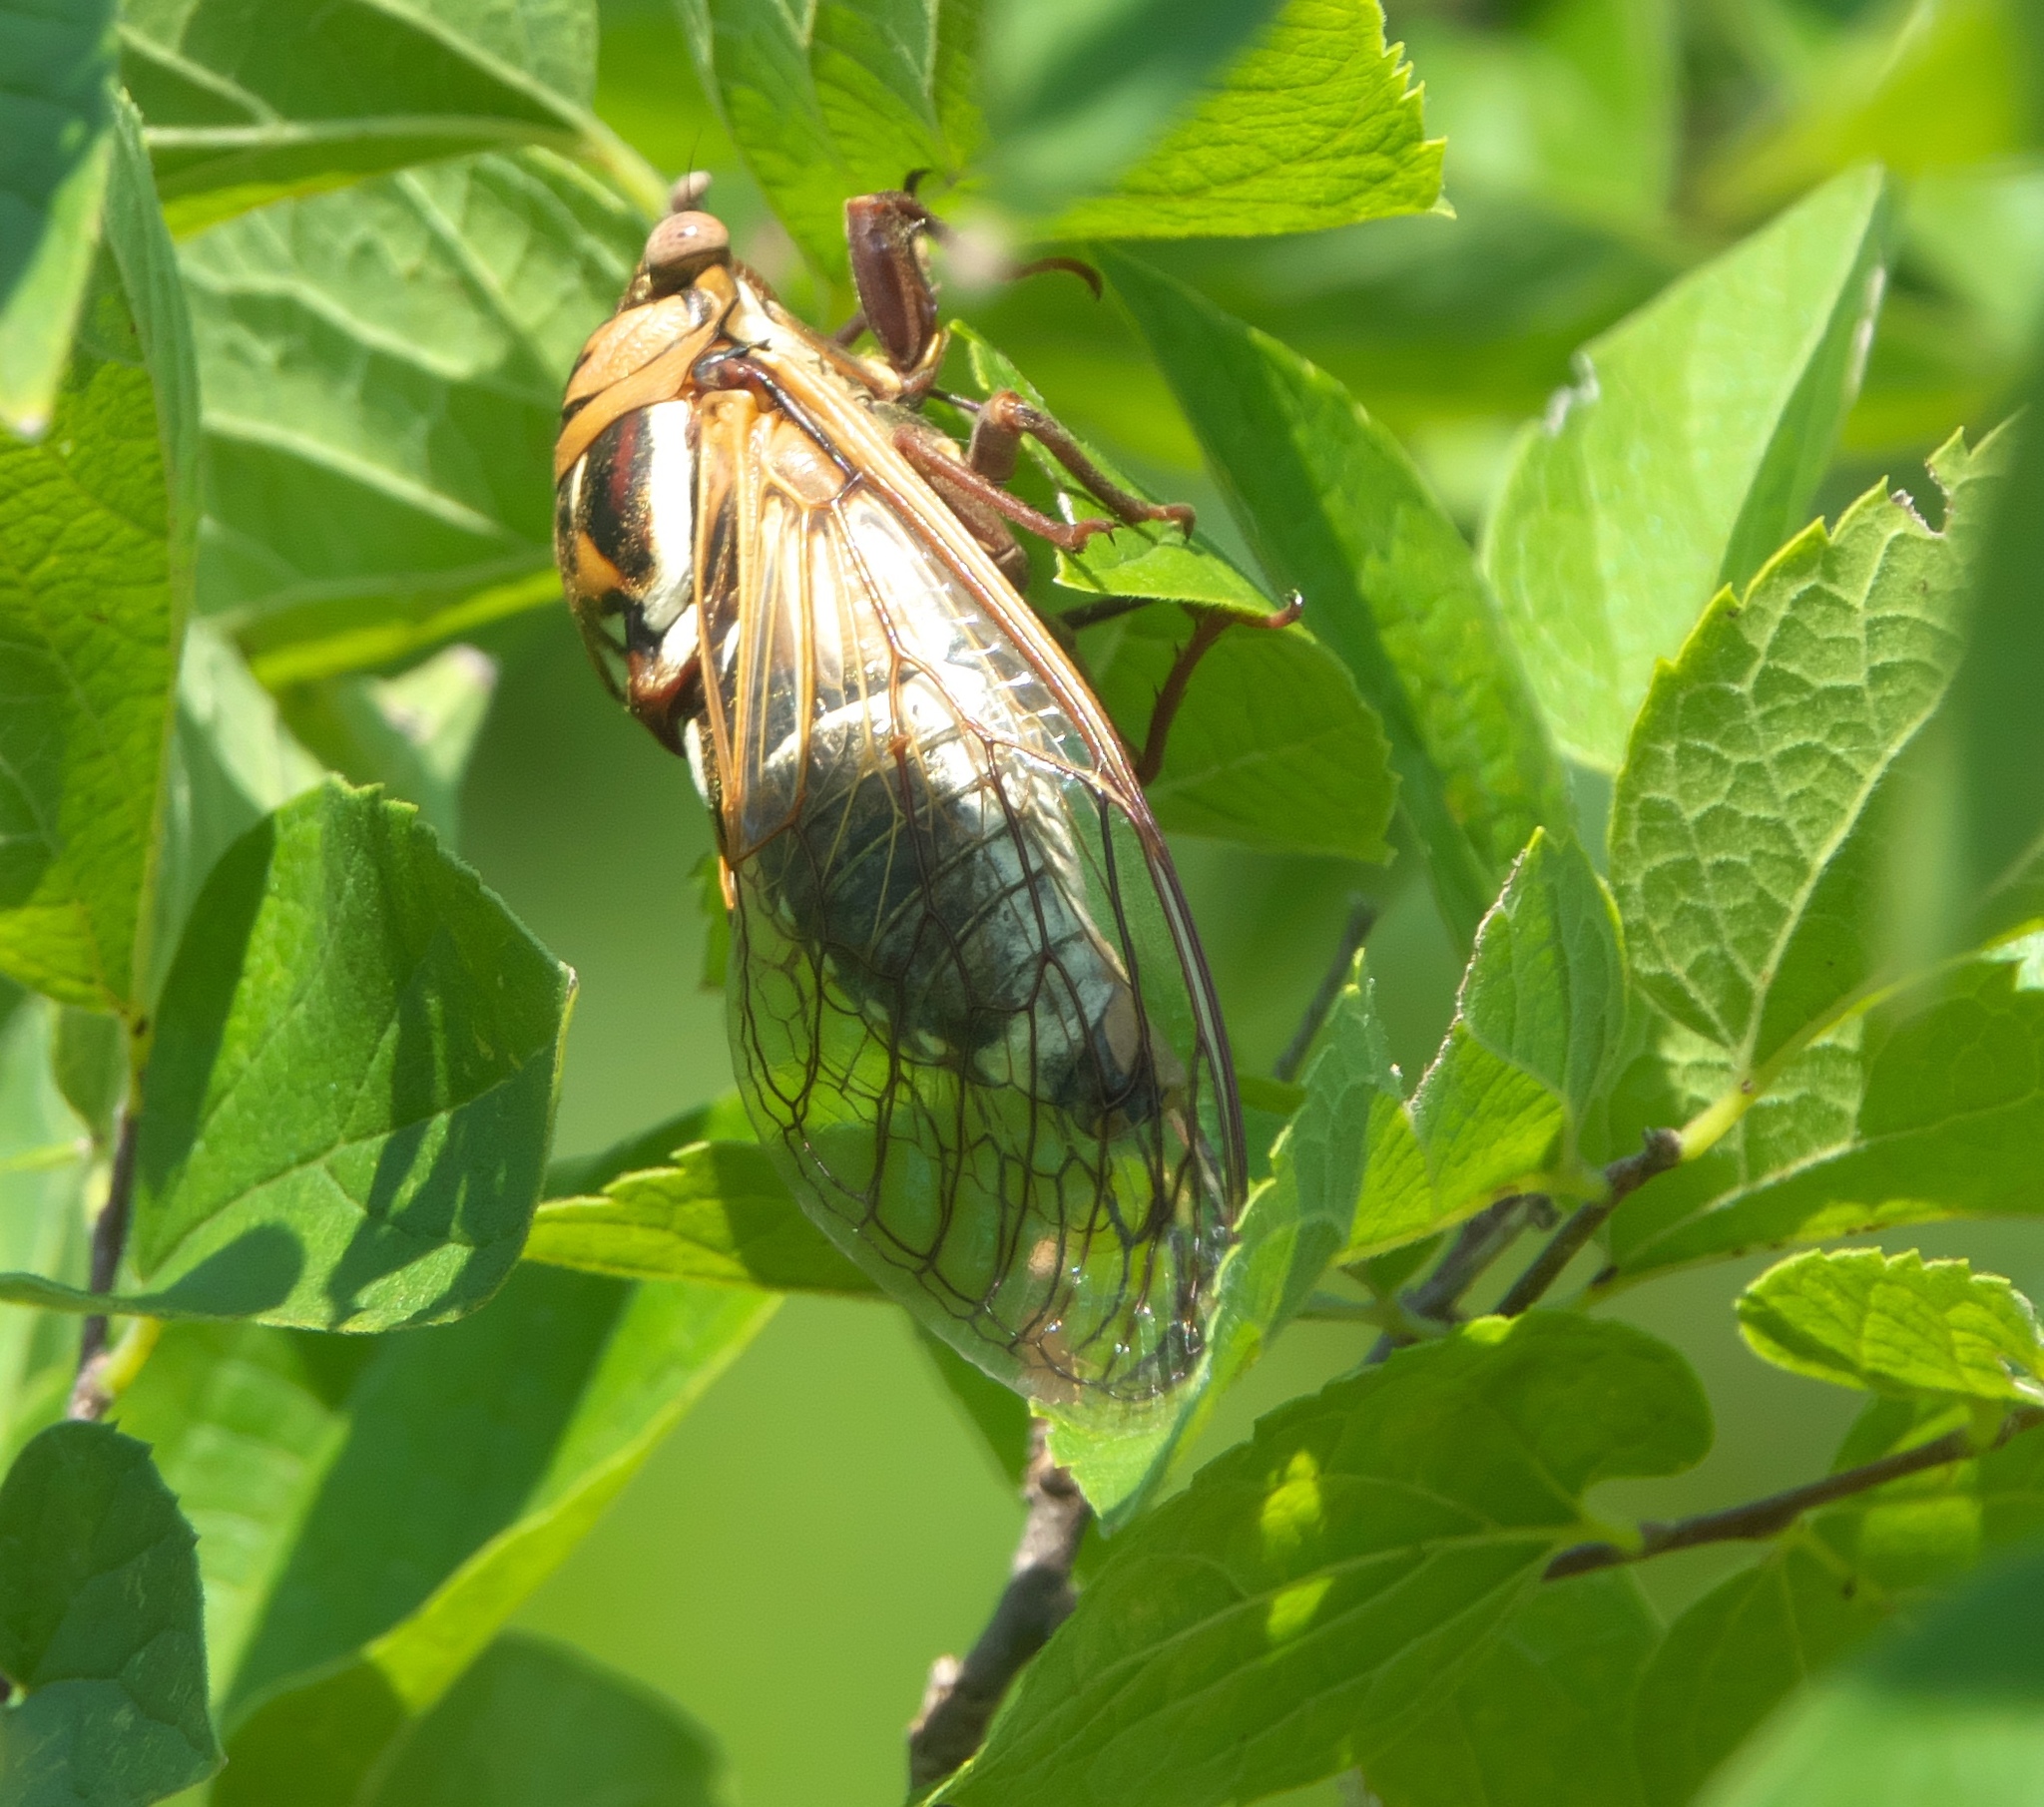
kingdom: Animalia
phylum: Arthropoda
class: Insecta
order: Hemiptera
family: Cicadidae
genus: Megatibicen
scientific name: Megatibicen dorsatus
